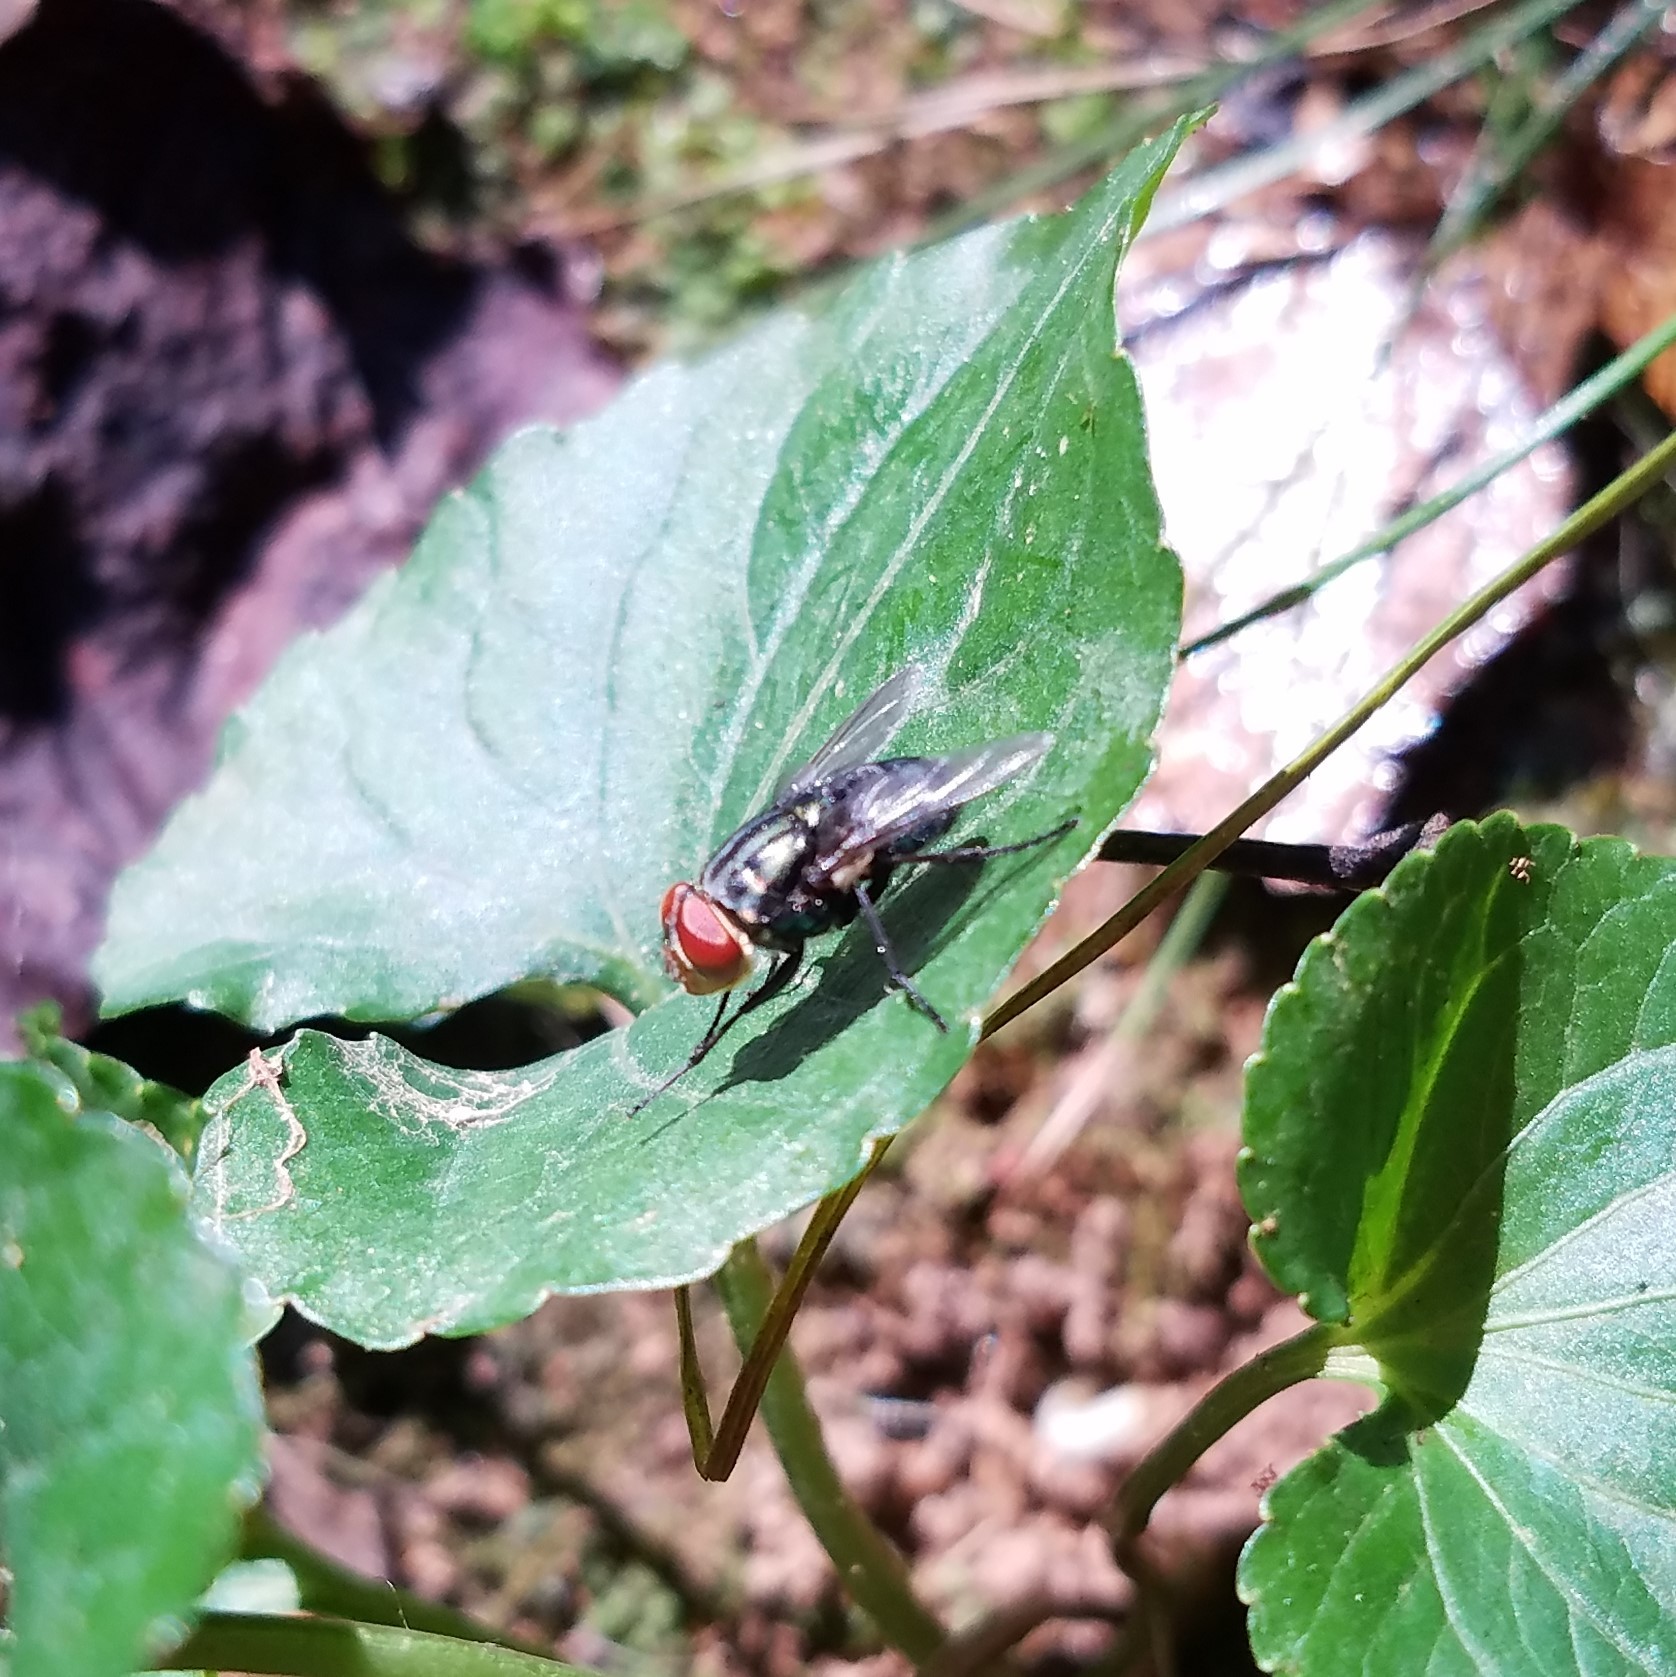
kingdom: Animalia
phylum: Arthropoda
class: Insecta
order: Diptera
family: Calliphoridae
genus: Cochliomyia
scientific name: Cochliomyia macellaria
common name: Secondary screwworm
